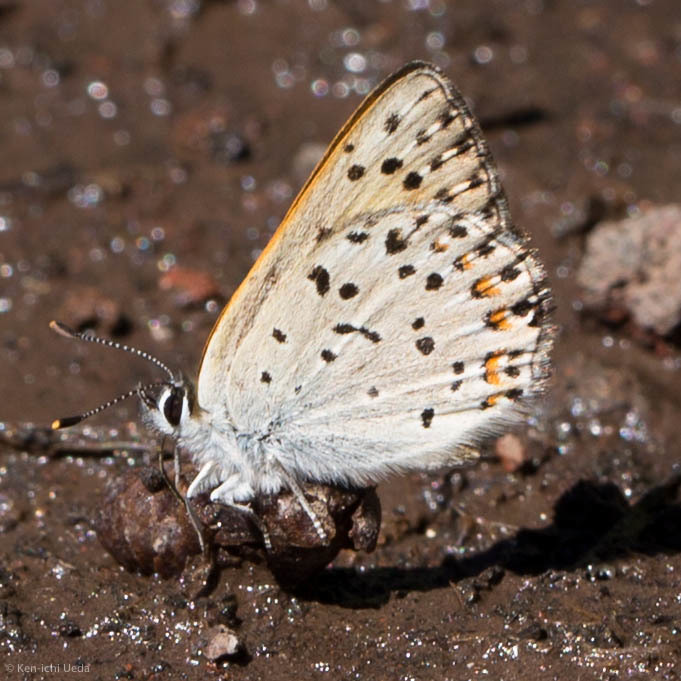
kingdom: Animalia
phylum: Arthropoda
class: Insecta
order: Lepidoptera
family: Lycaenidae
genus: Tharsalea
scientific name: Tharsalea gorgon
